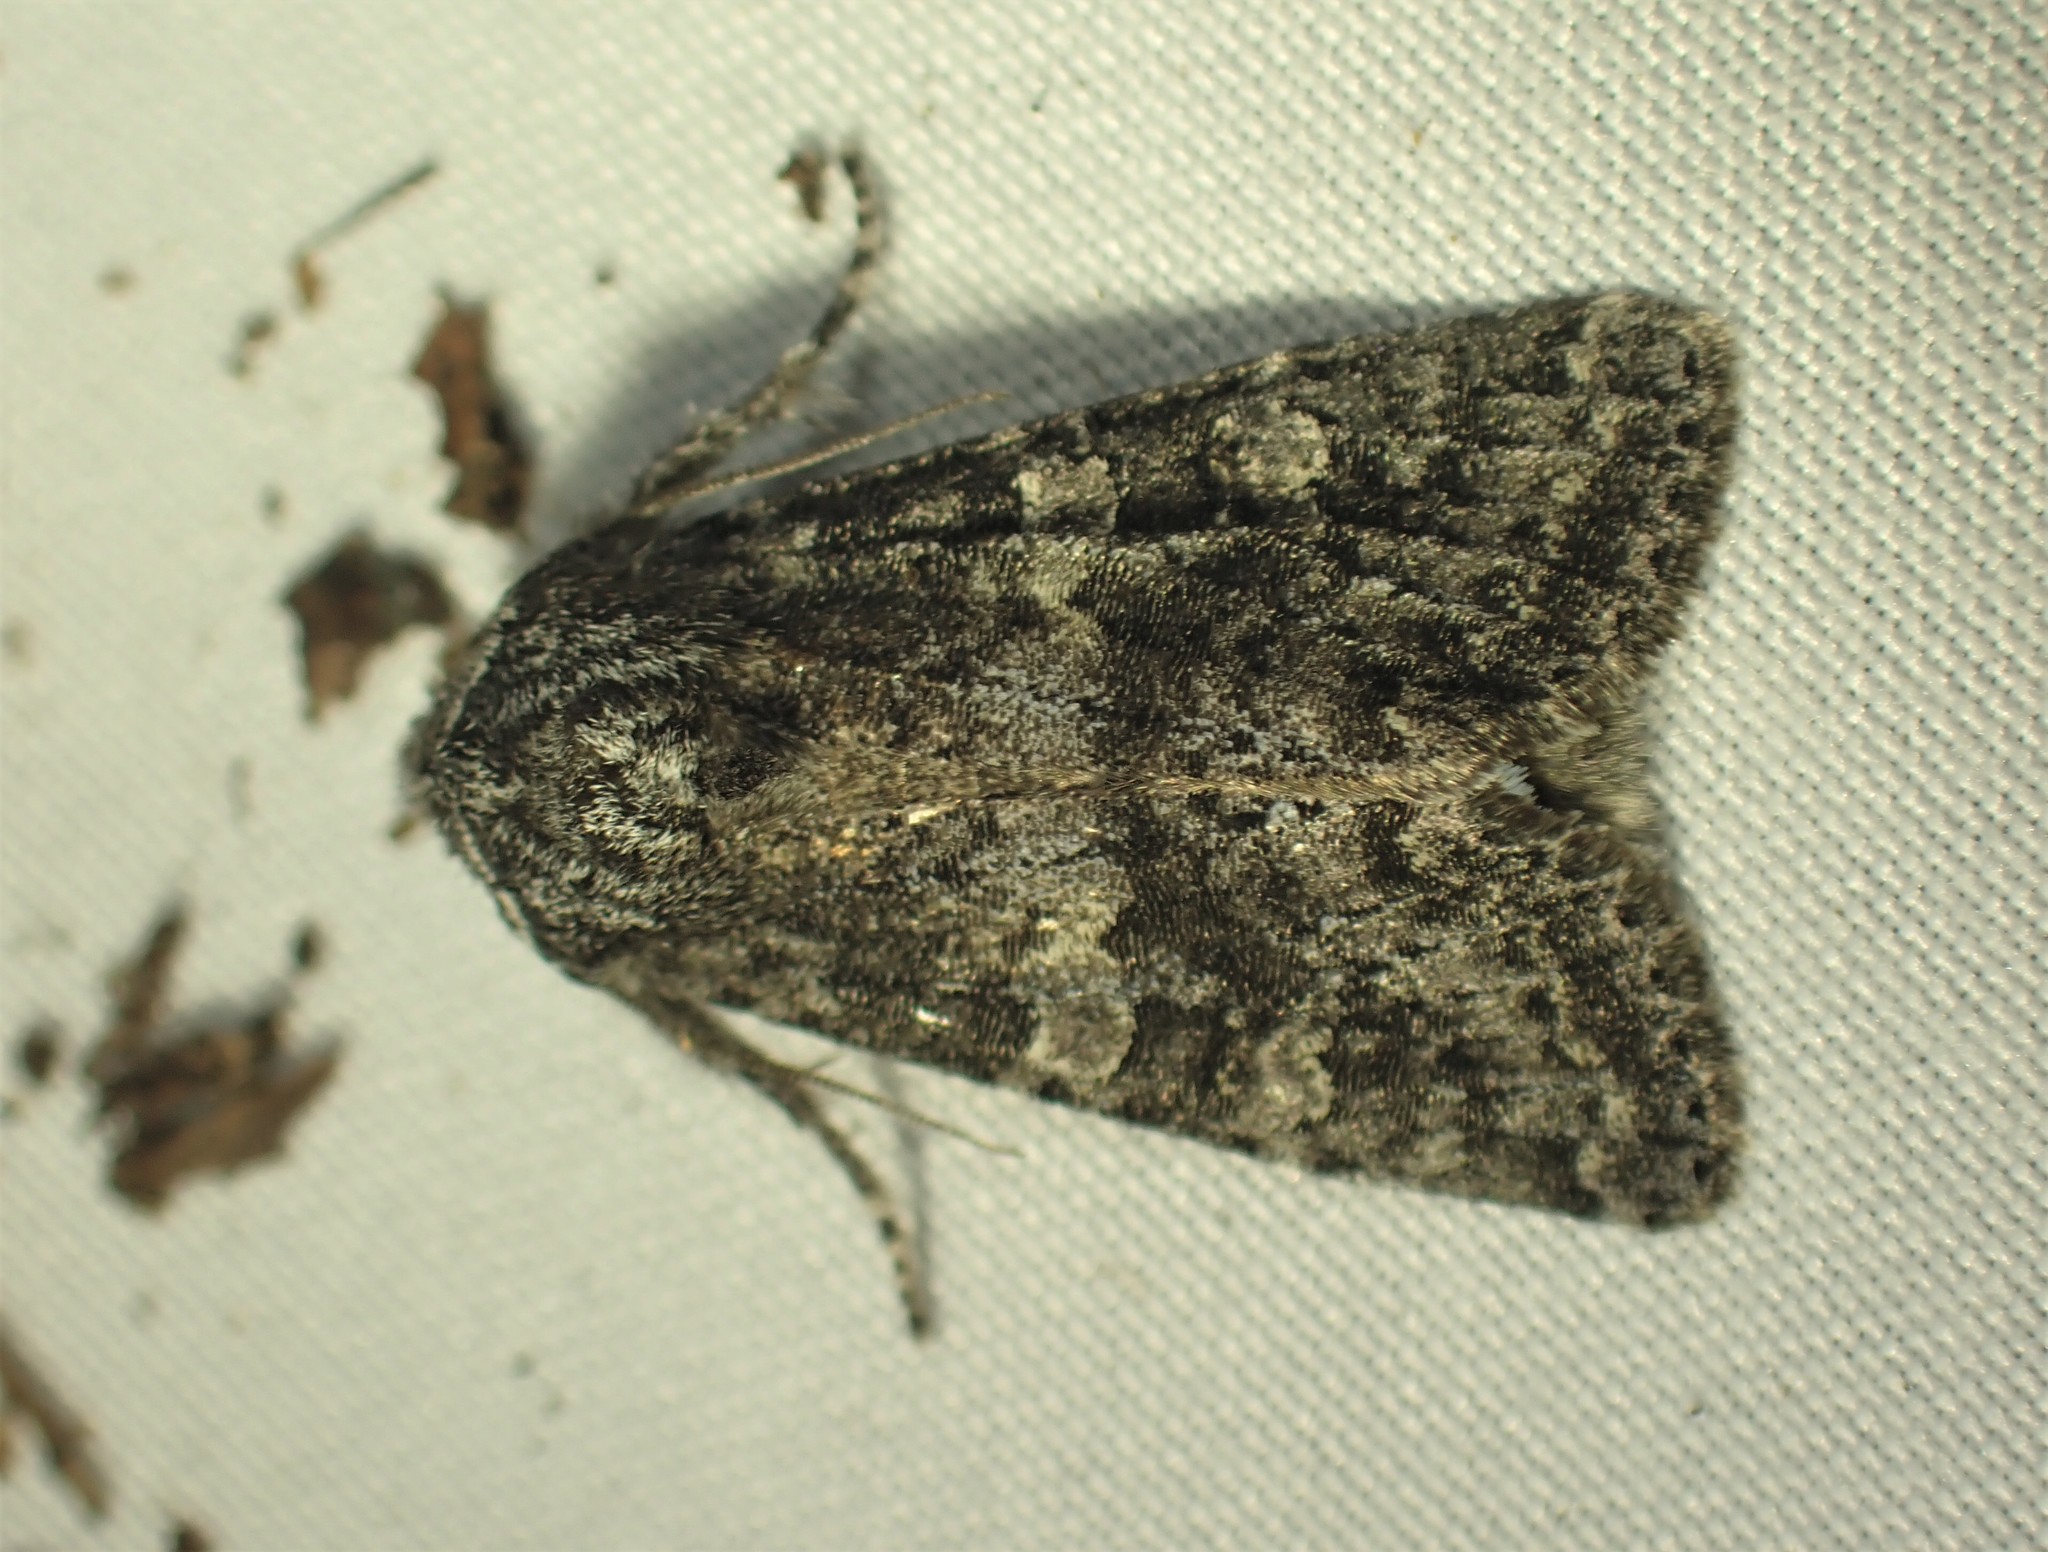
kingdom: Animalia
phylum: Arthropoda
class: Insecta
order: Lepidoptera
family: Noctuidae
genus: Egira
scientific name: Egira dolosa
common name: Lined black aspen cat.
